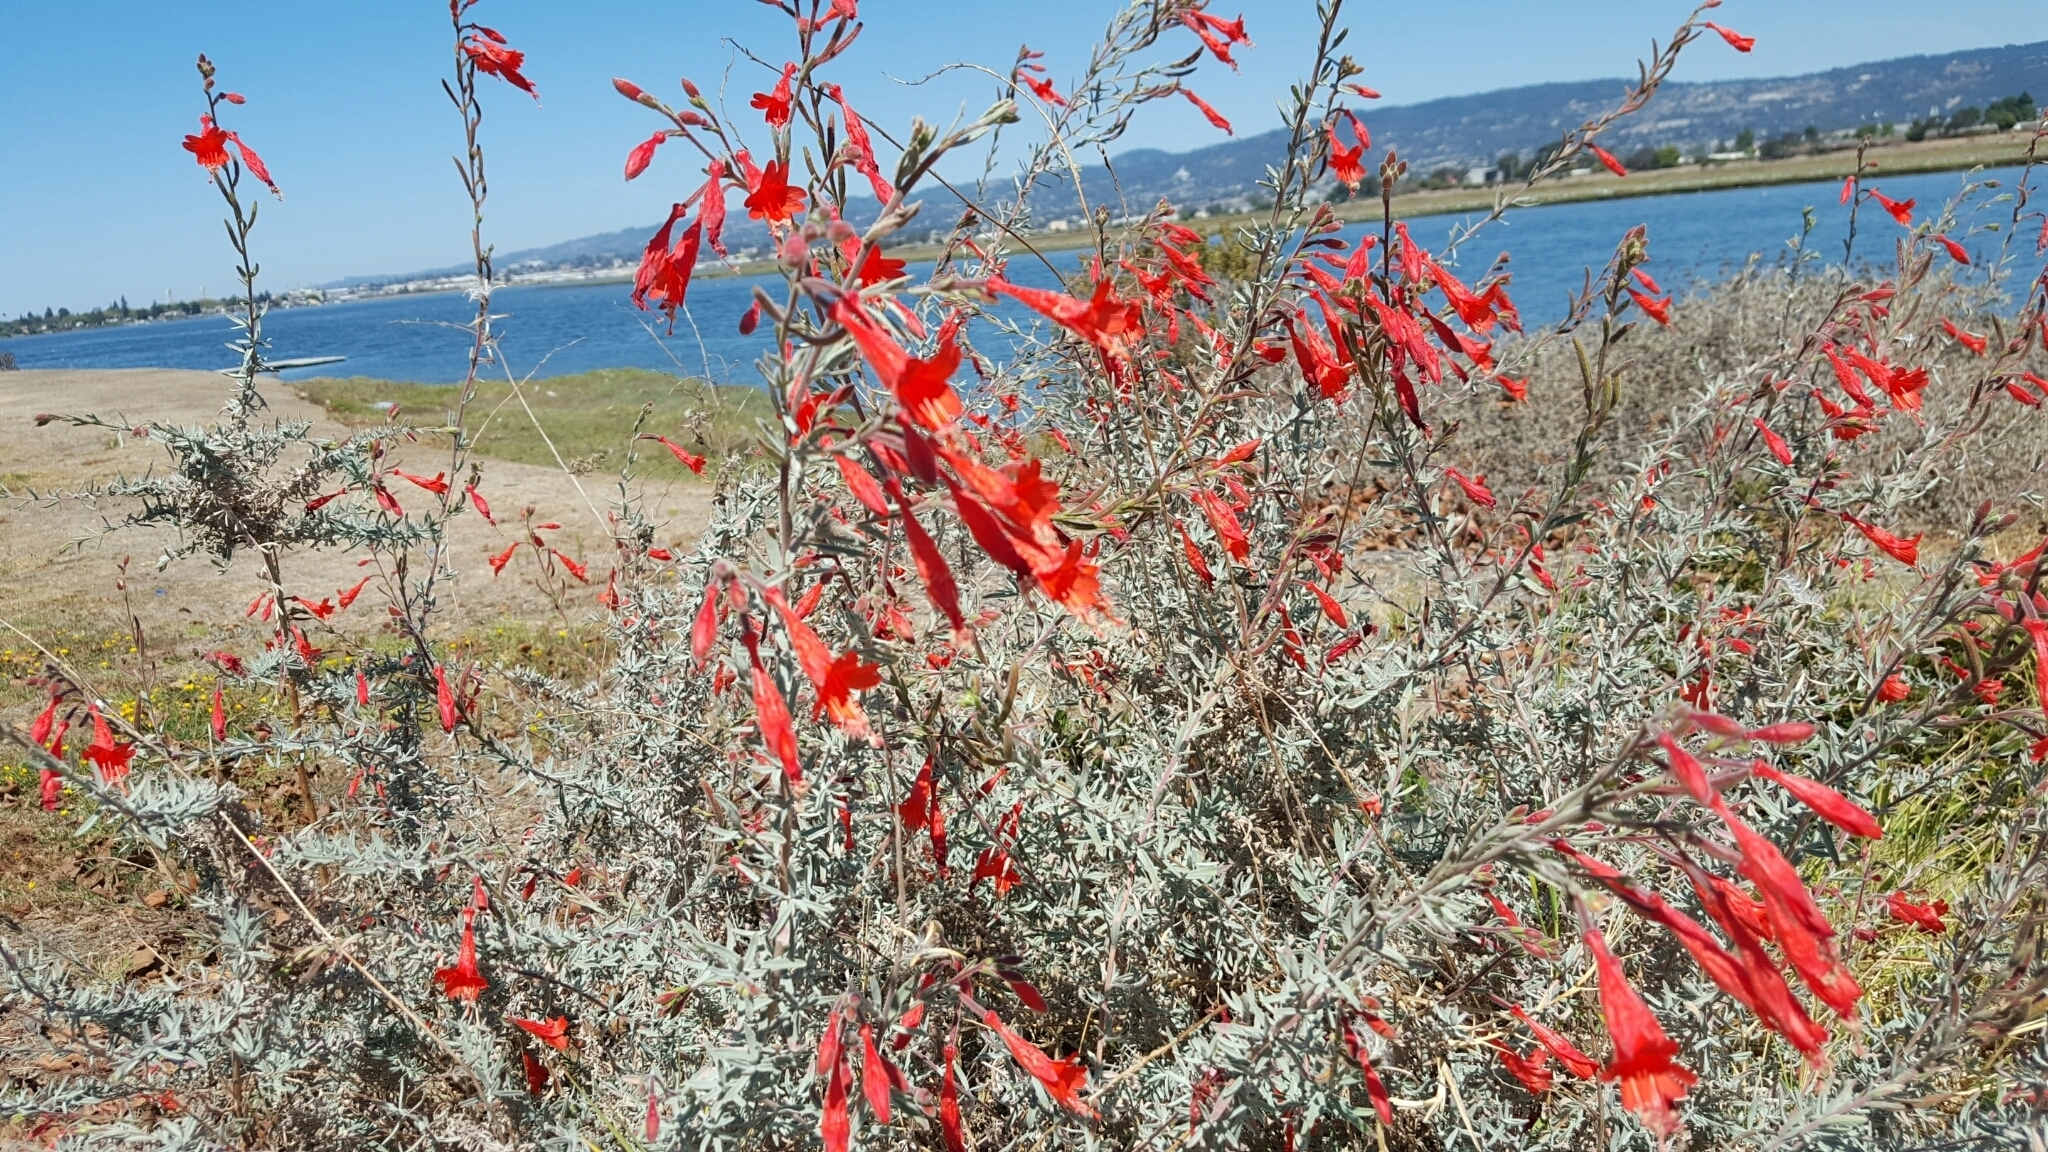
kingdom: Plantae
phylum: Tracheophyta
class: Magnoliopsida
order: Myrtales
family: Onagraceae
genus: Epilobium
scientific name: Epilobium canum
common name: California-fuchsia
